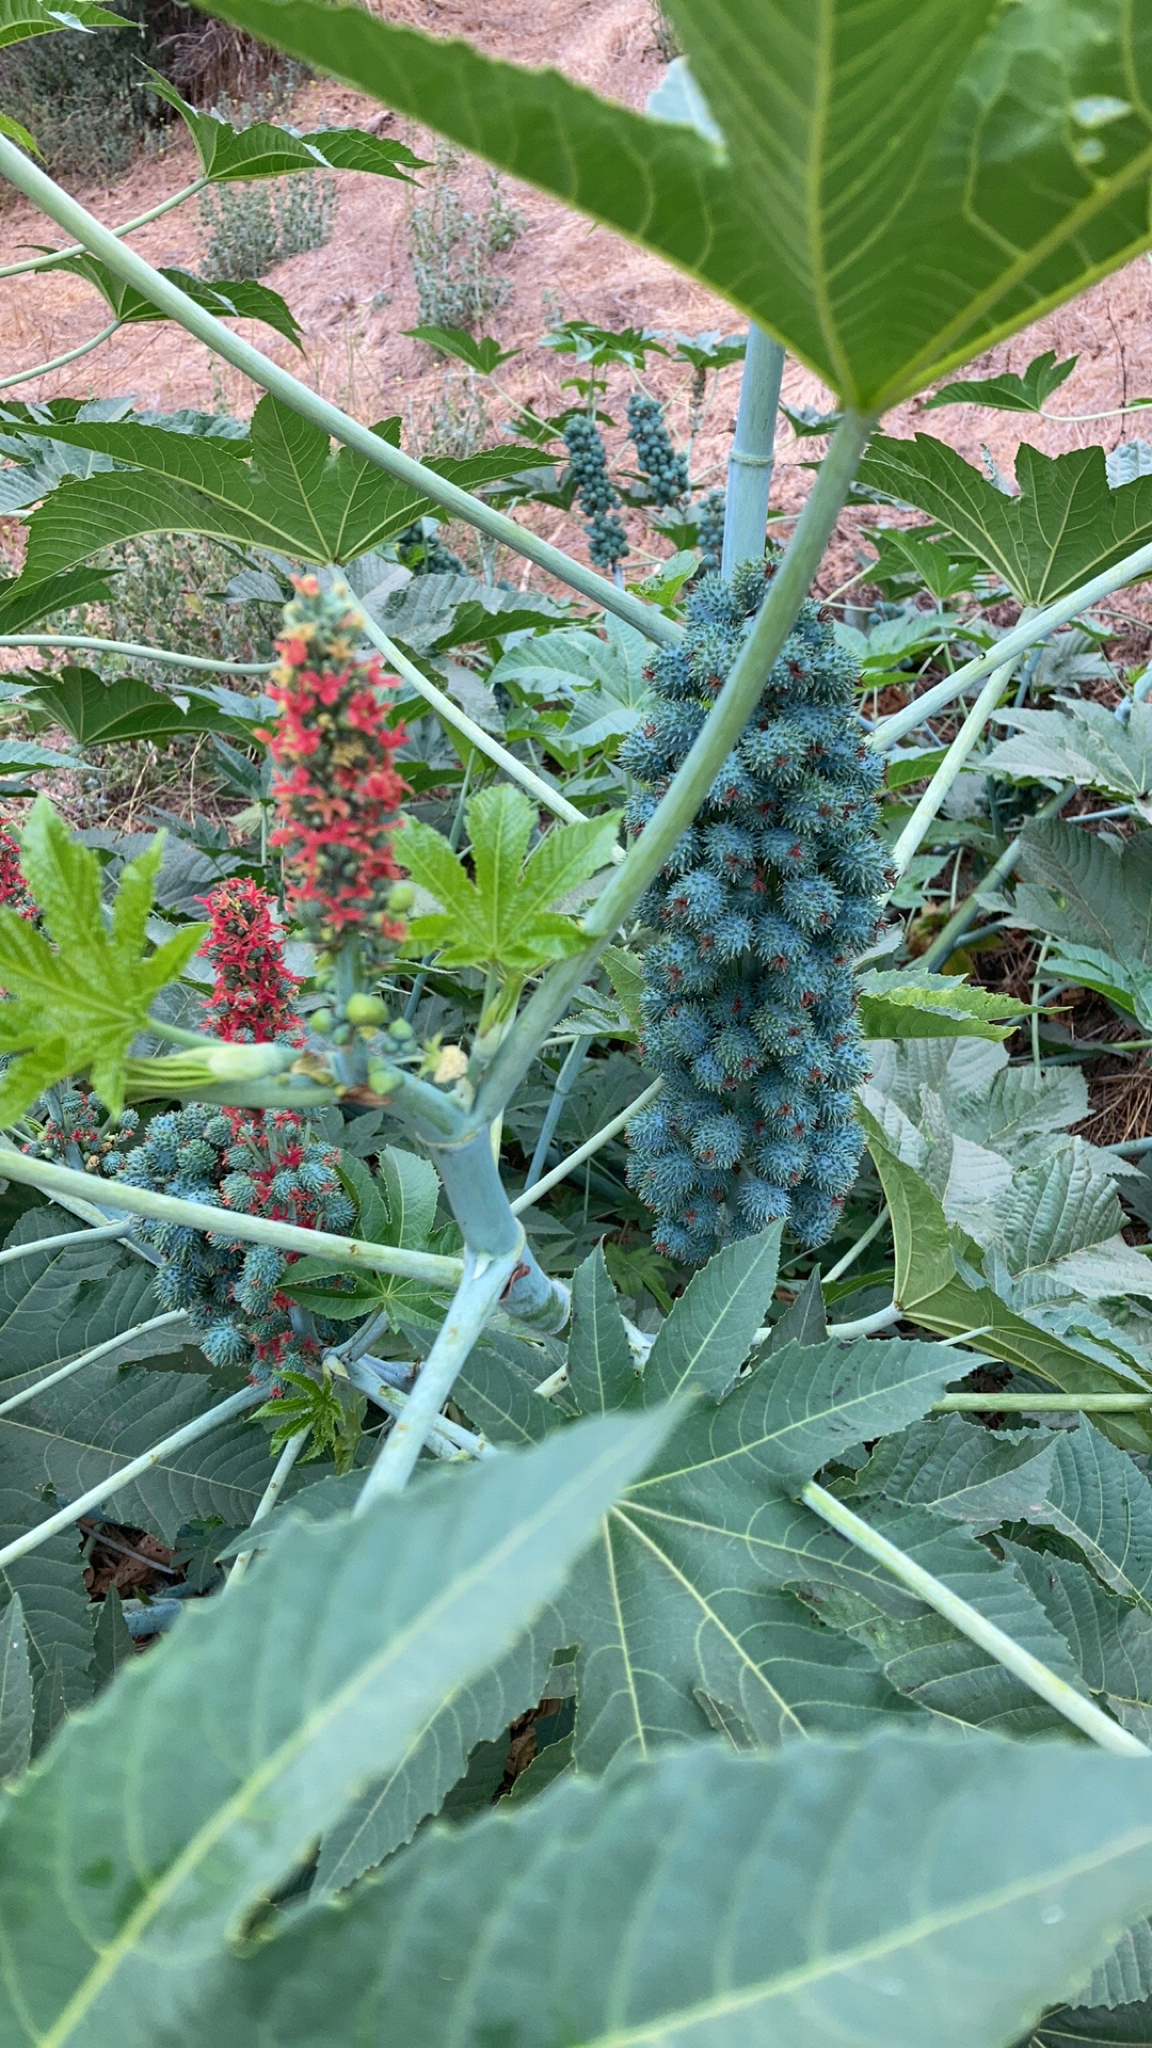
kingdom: Plantae
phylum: Tracheophyta
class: Magnoliopsida
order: Malpighiales
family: Euphorbiaceae
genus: Ricinus
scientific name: Ricinus communis
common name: Castor-oil-plant
